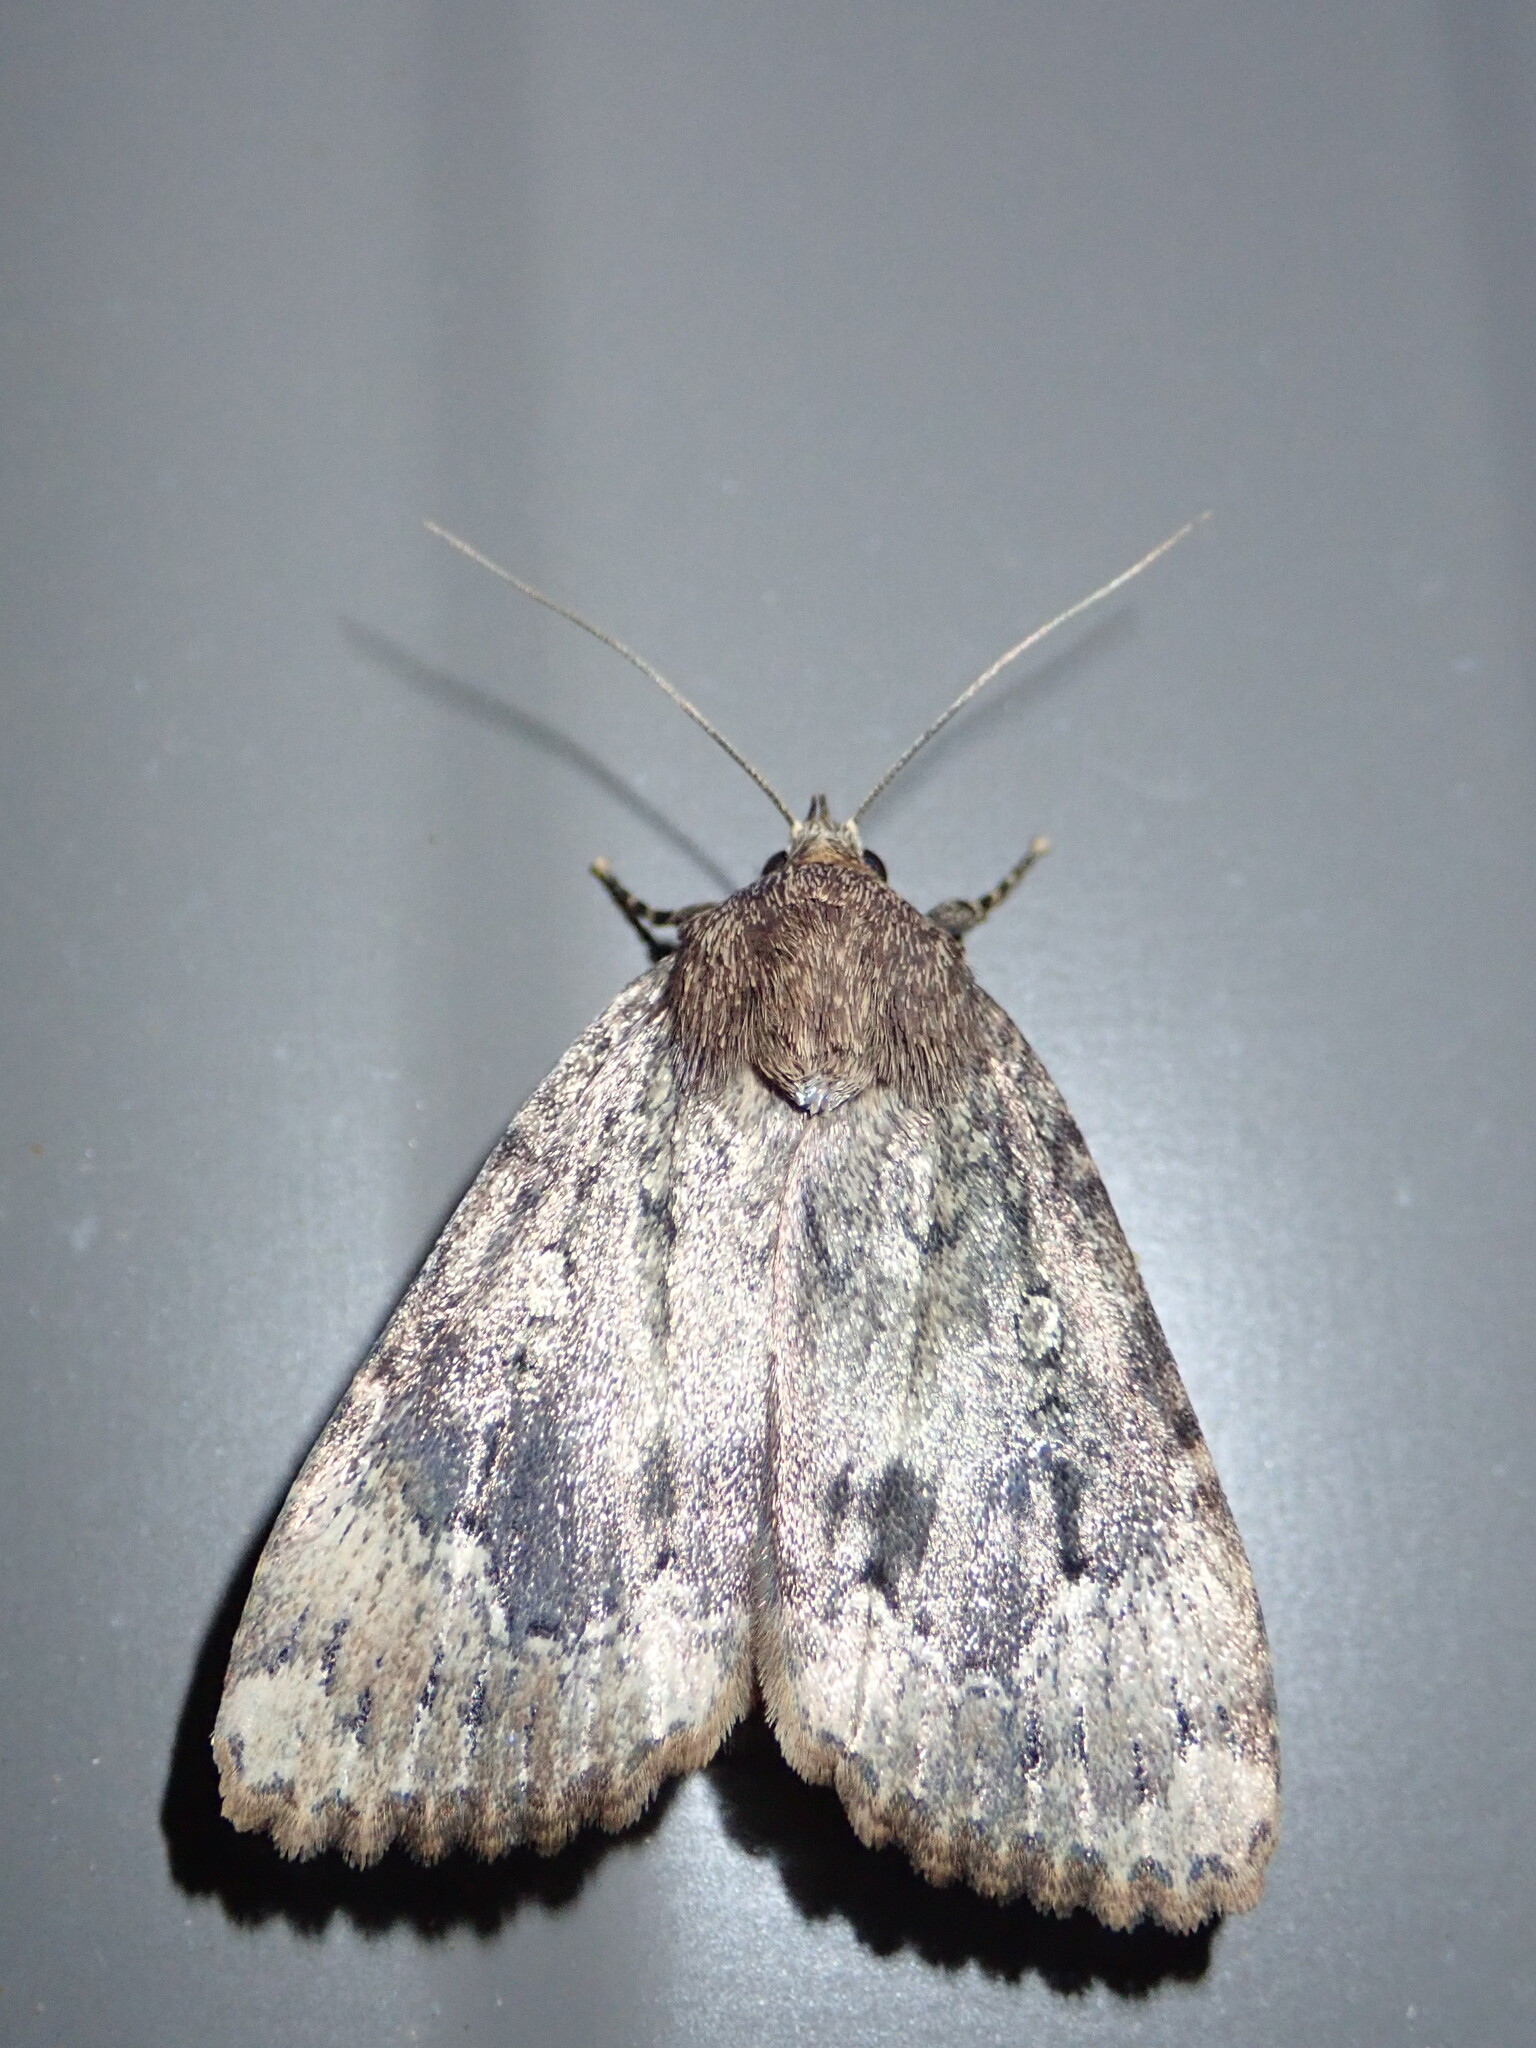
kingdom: Animalia
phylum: Arthropoda
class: Insecta
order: Lepidoptera
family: Noctuidae
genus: Amphipyra
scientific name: Amphipyra pyramidoides
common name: American copper underwing
